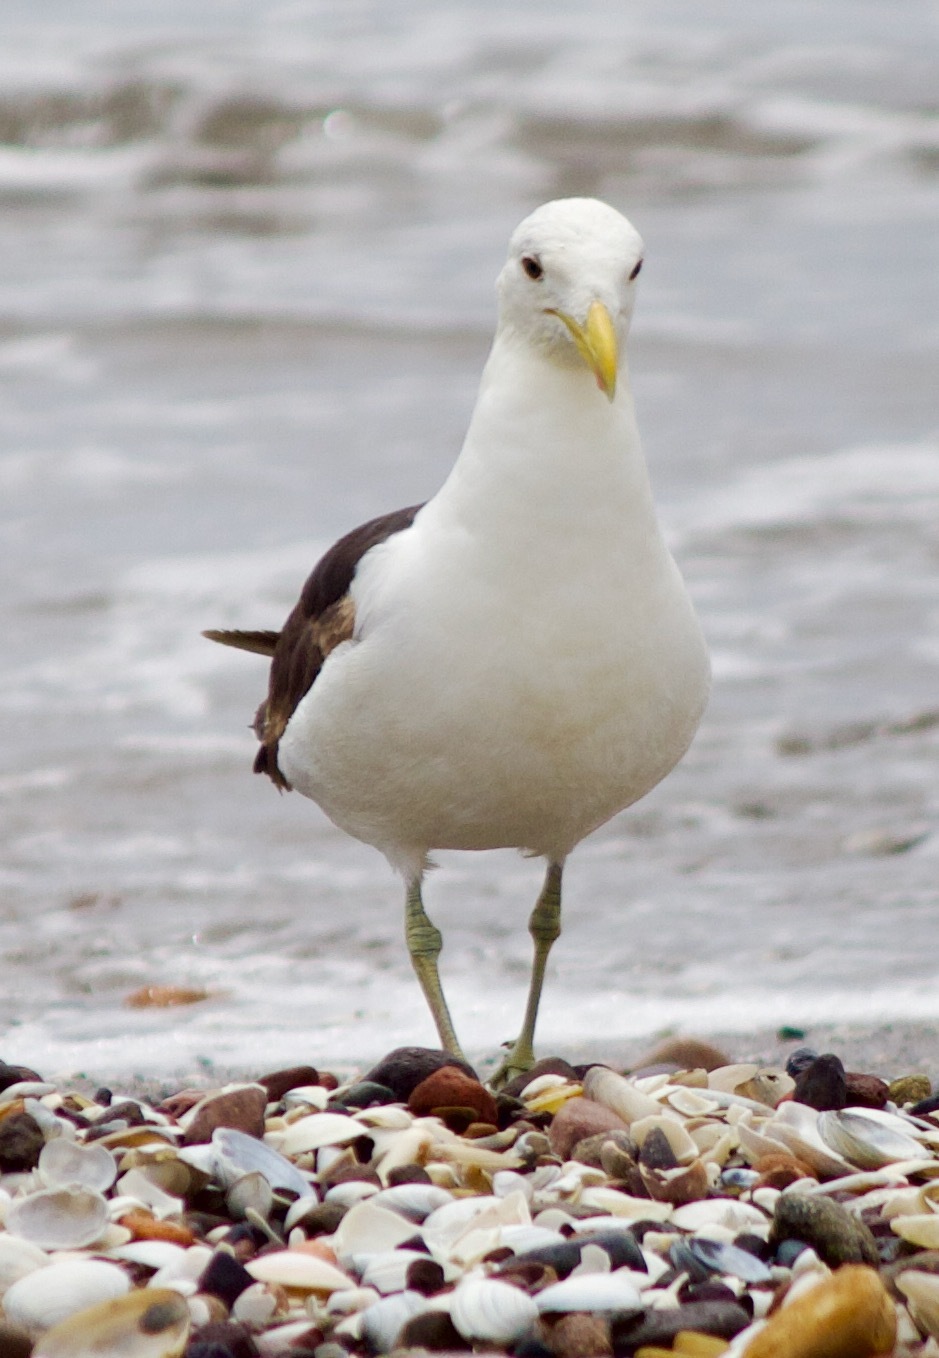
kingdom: Animalia
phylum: Chordata
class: Aves
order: Charadriiformes
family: Laridae
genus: Larus
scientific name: Larus dominicanus
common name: Kelp gull
